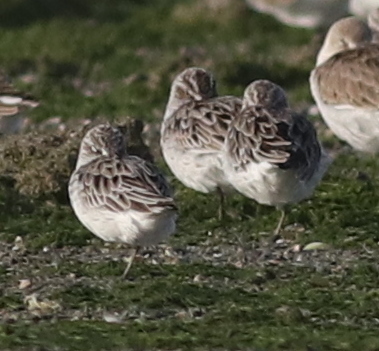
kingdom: Animalia
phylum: Chordata
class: Aves
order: Charadriiformes
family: Scolopacidae
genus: Calidris
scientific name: Calidris falcinellus
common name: Broad-billed sandpiper
